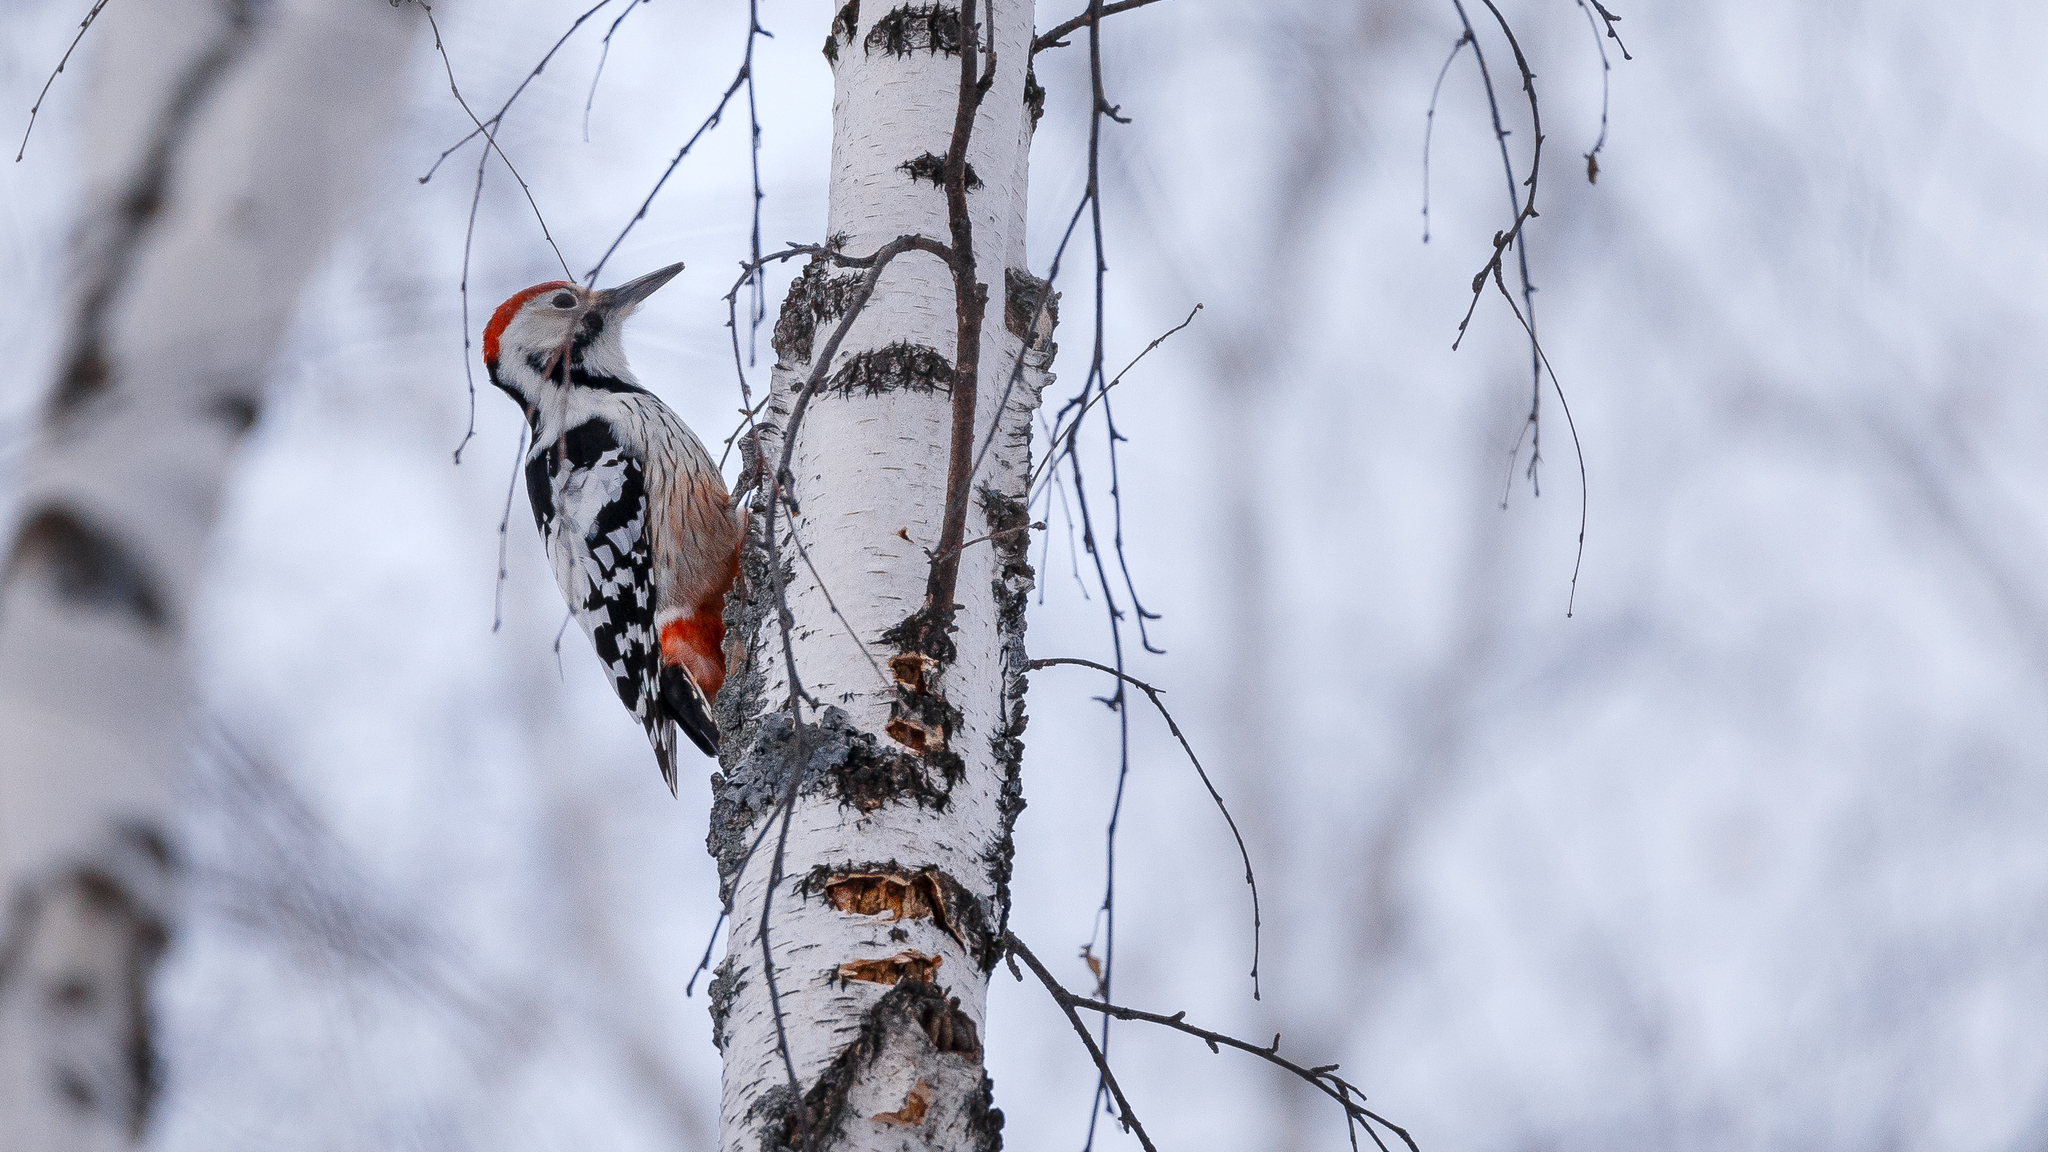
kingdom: Animalia
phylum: Chordata
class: Aves
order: Piciformes
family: Picidae
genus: Dendrocopos
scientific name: Dendrocopos leucotos
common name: White-backed woodpecker
